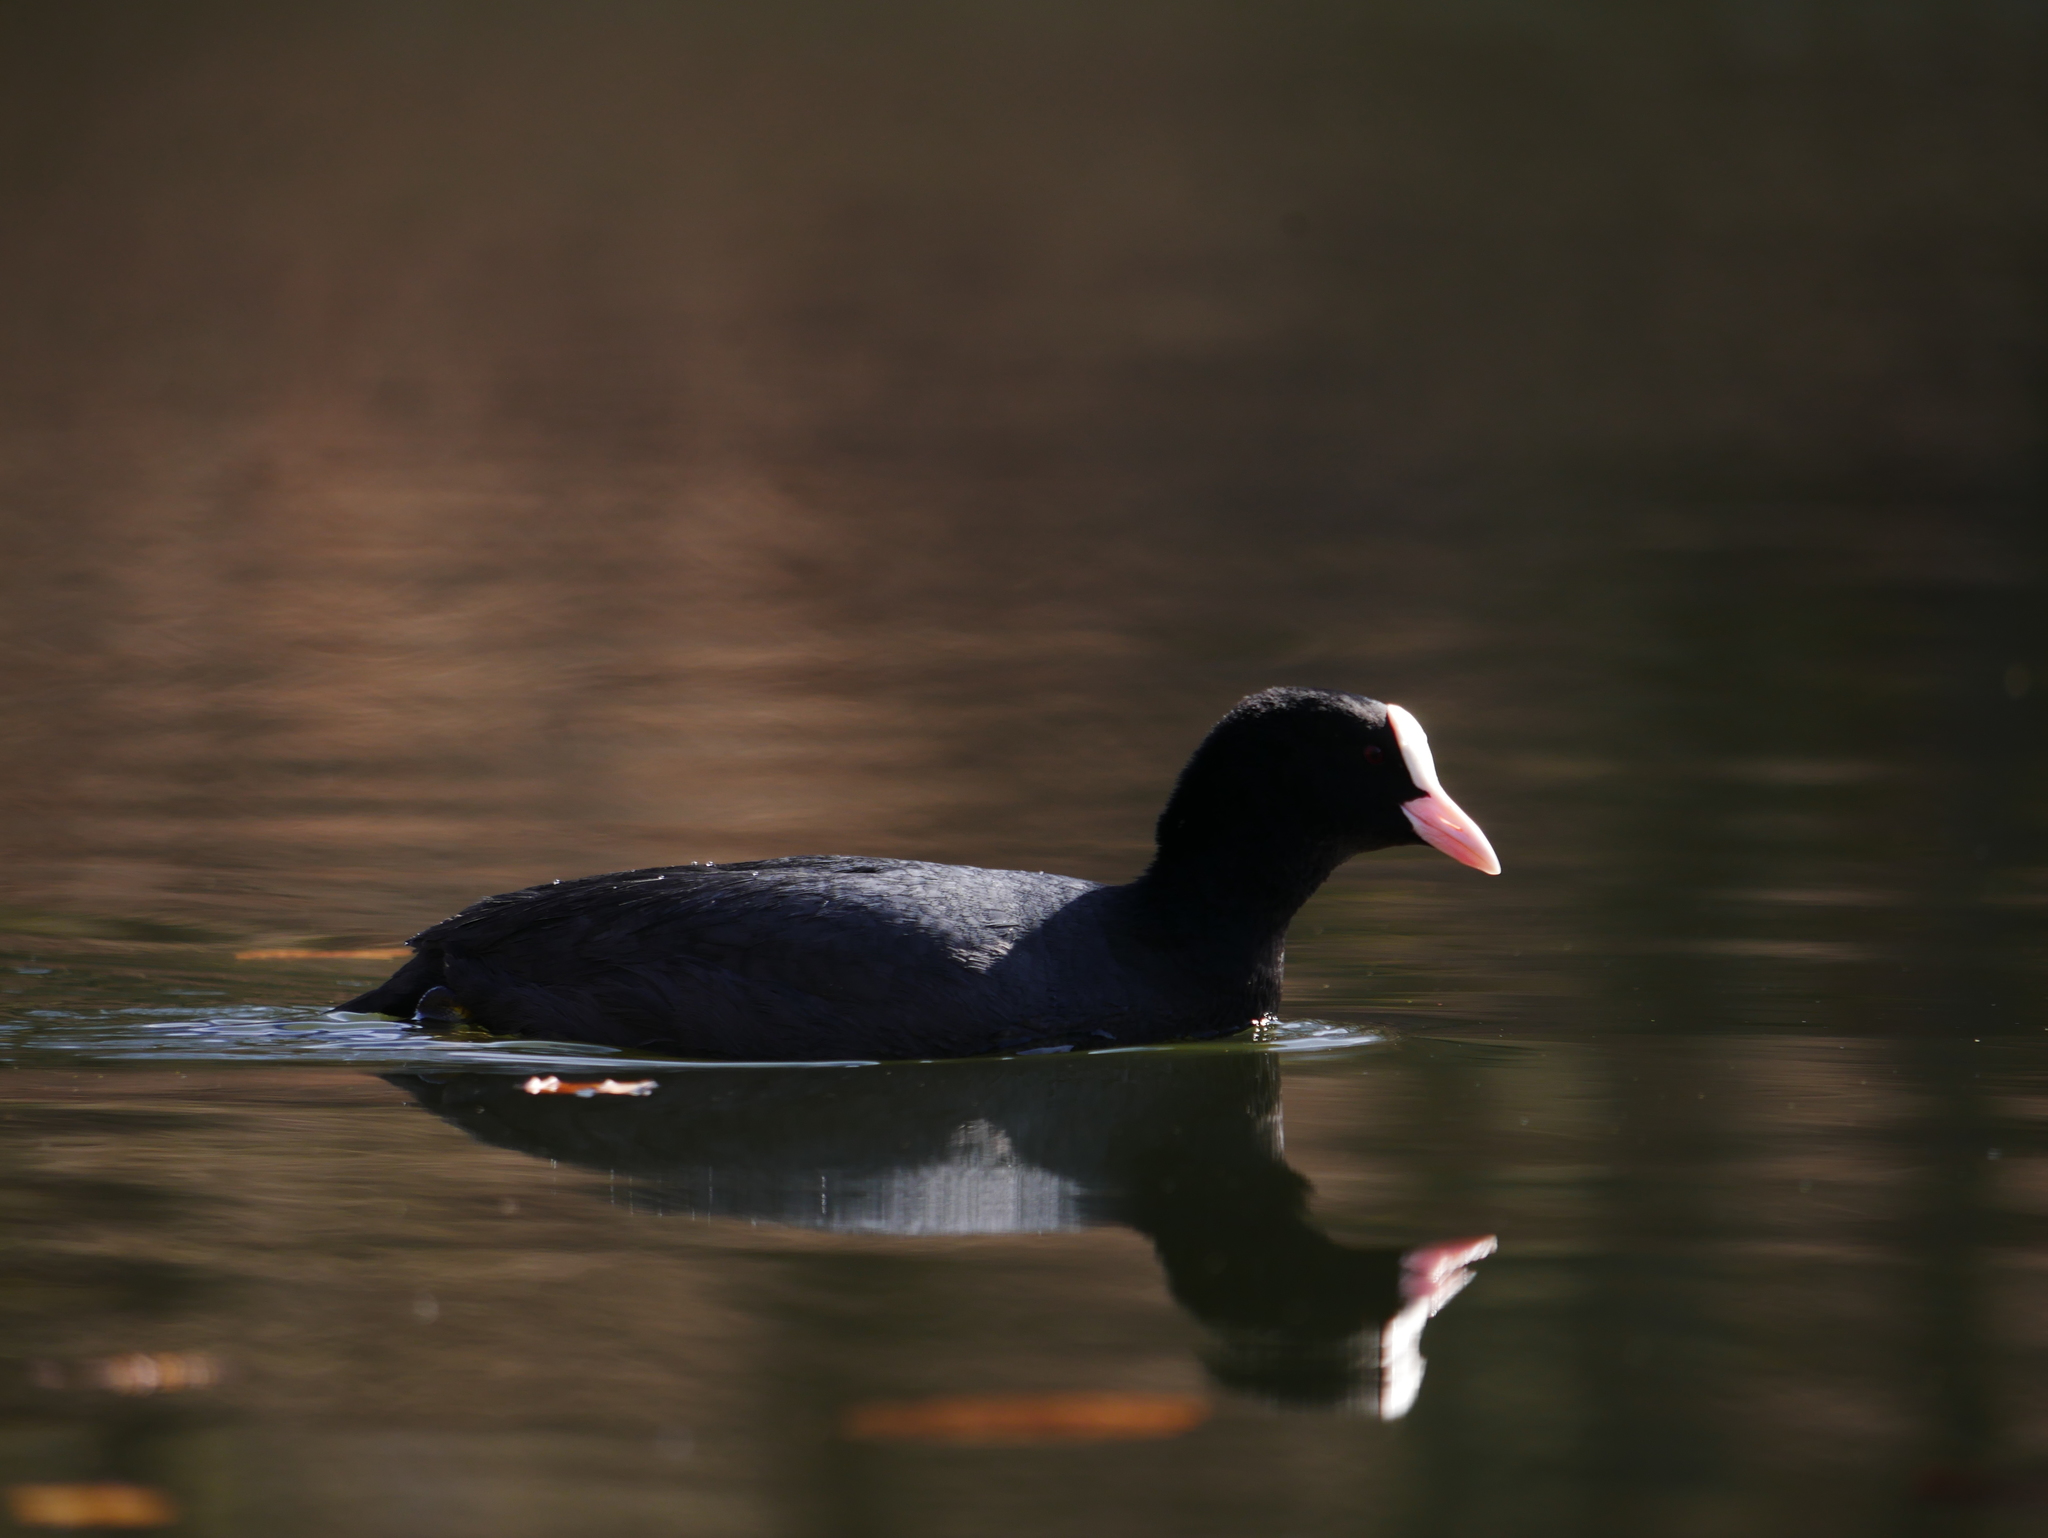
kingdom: Animalia
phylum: Chordata
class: Aves
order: Gruiformes
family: Rallidae
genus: Fulica
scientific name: Fulica atra
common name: Eurasian coot
